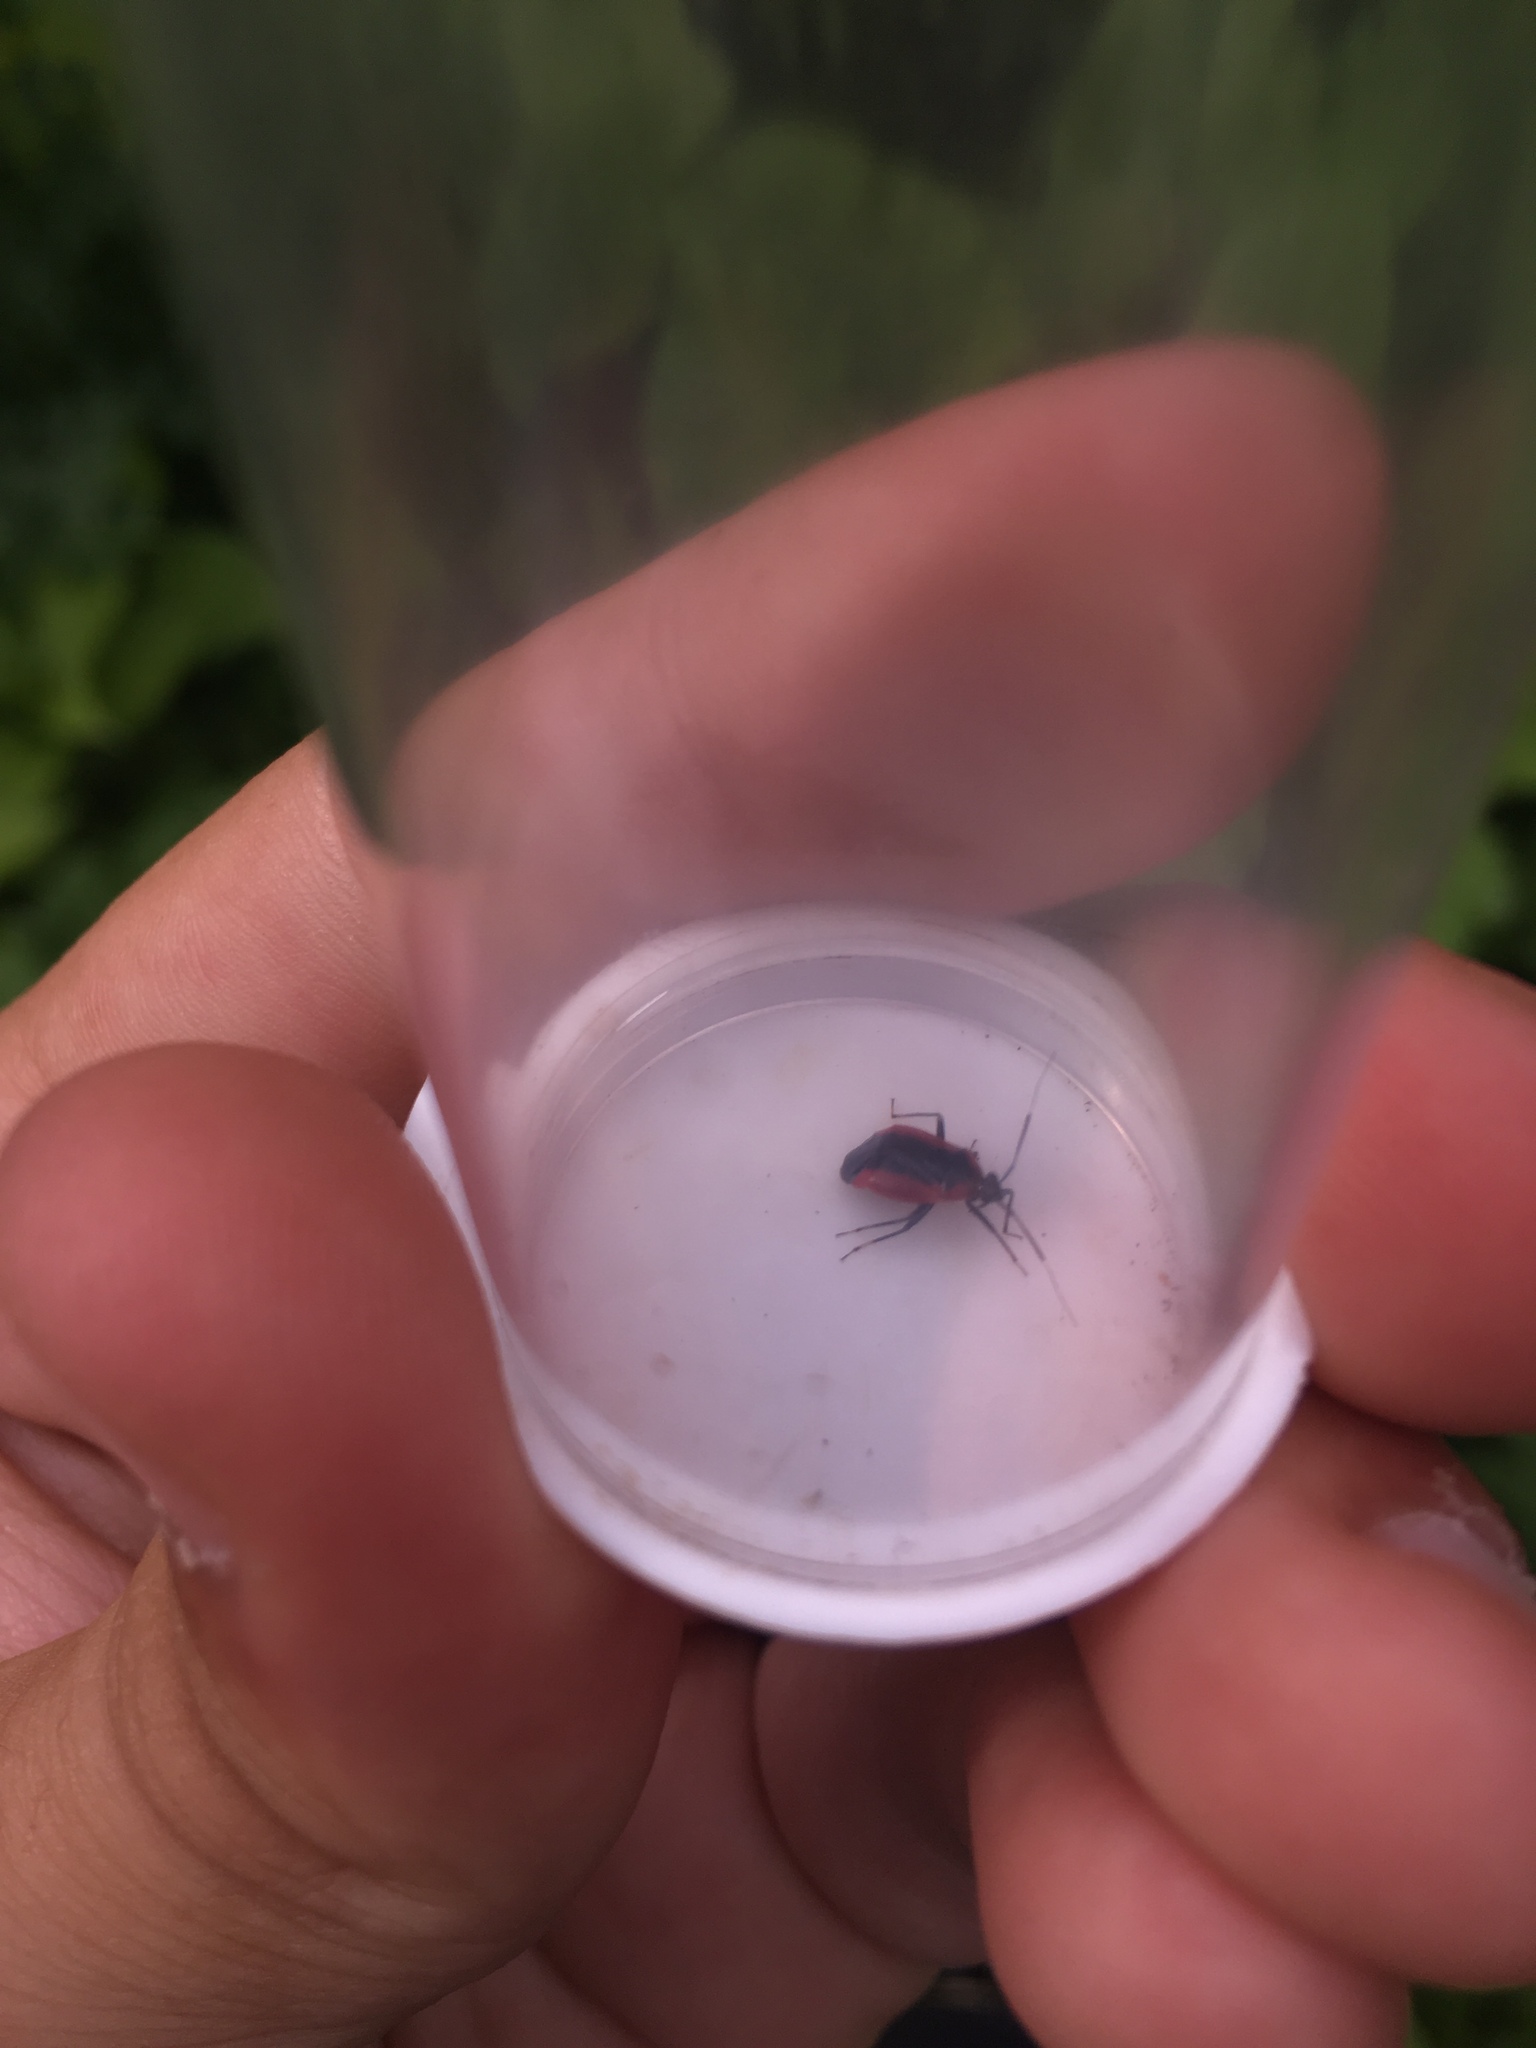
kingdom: Animalia
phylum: Arthropoda
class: Insecta
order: Hemiptera
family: Miridae
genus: Metriorrhynchomiris
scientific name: Metriorrhynchomiris dislocatus
